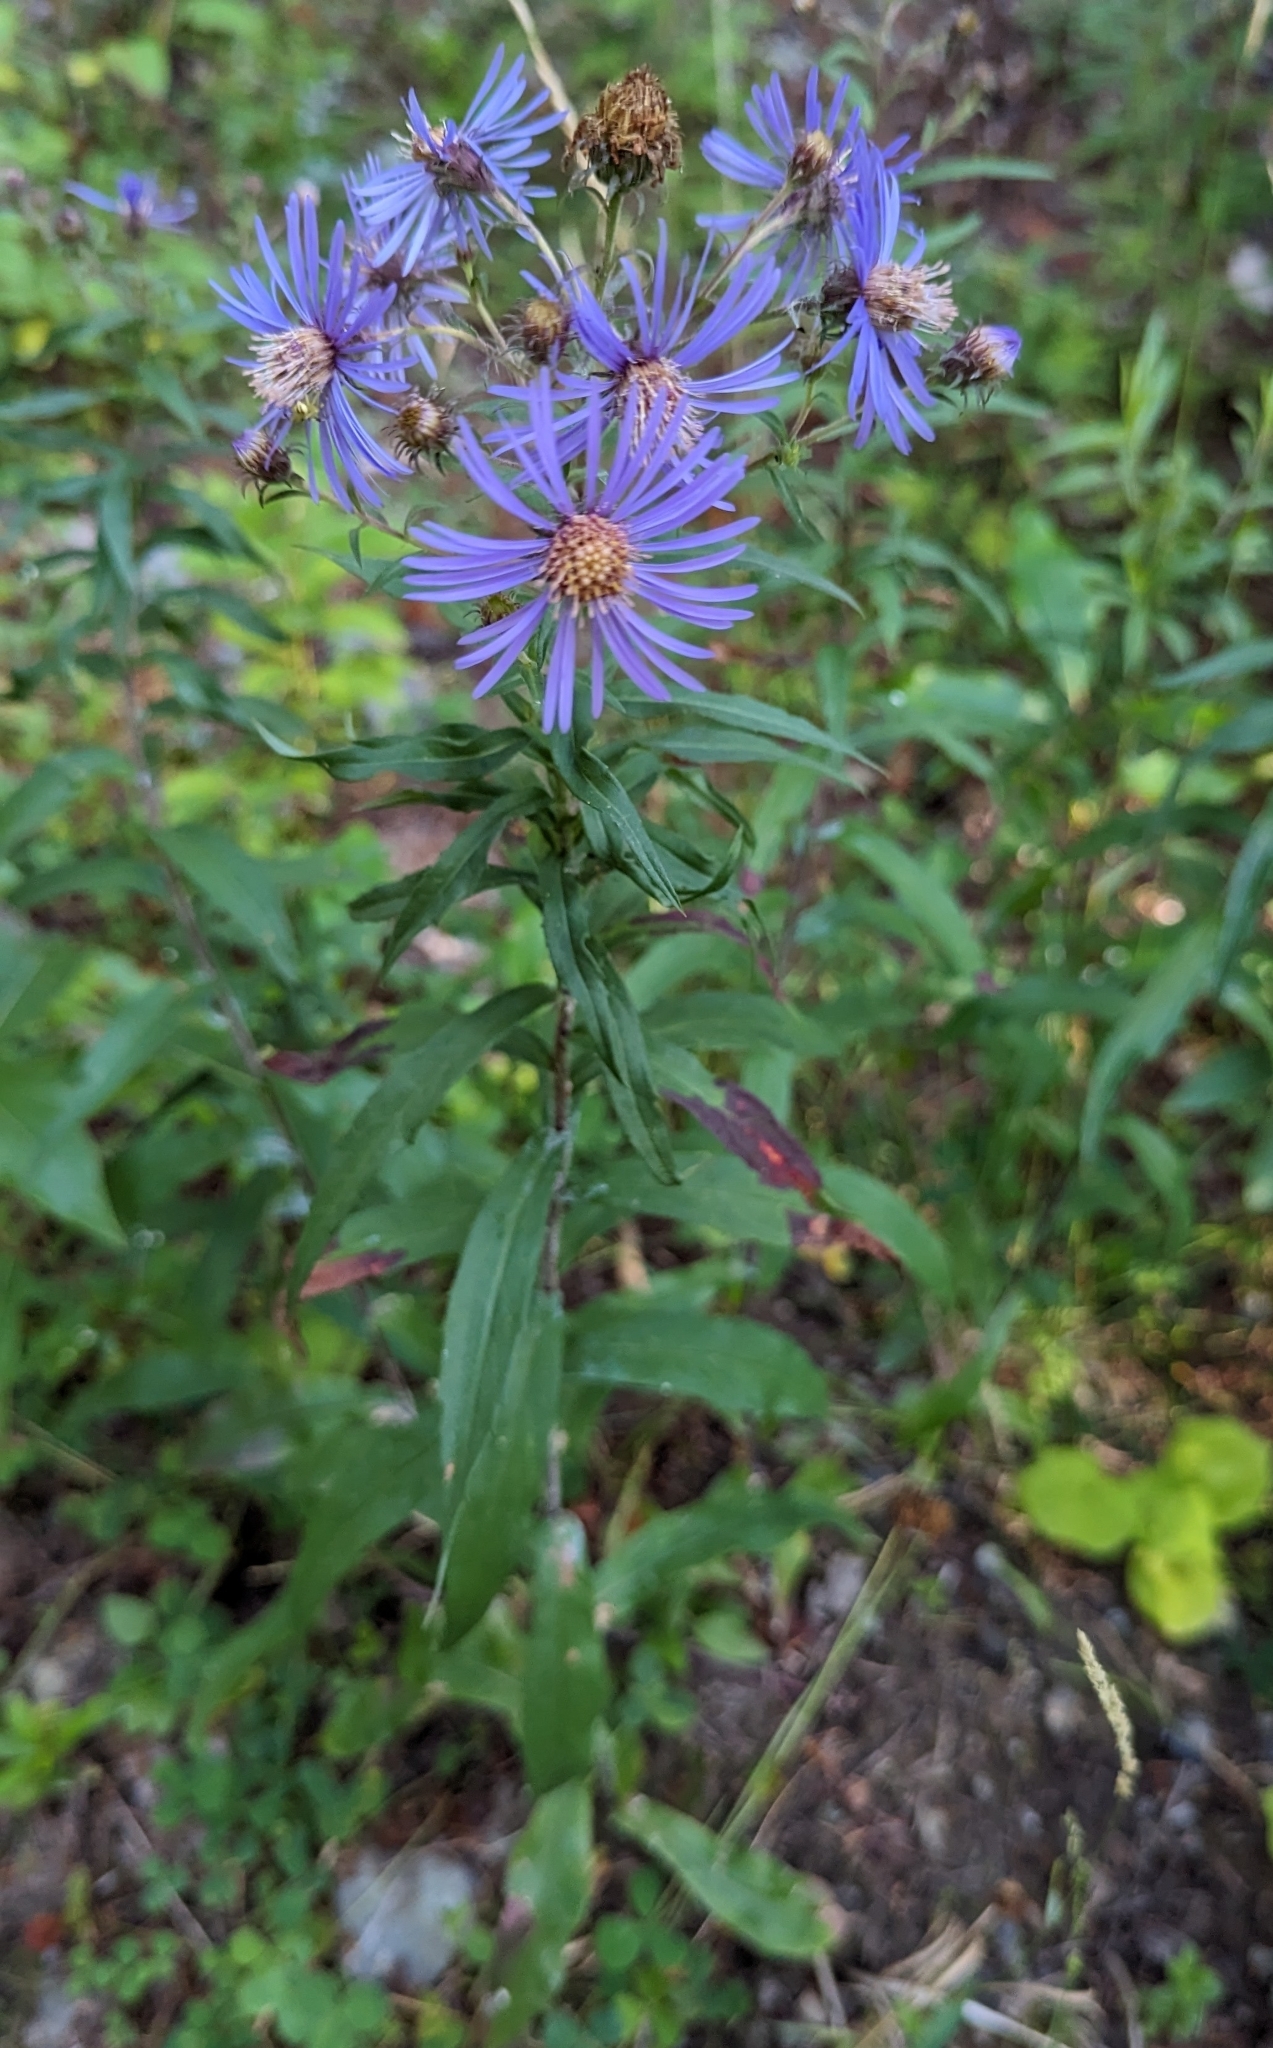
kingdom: Plantae
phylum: Tracheophyta
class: Magnoliopsida
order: Asterales
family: Asteraceae
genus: Canadanthus
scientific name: Canadanthus modestus
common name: Great northern aster
